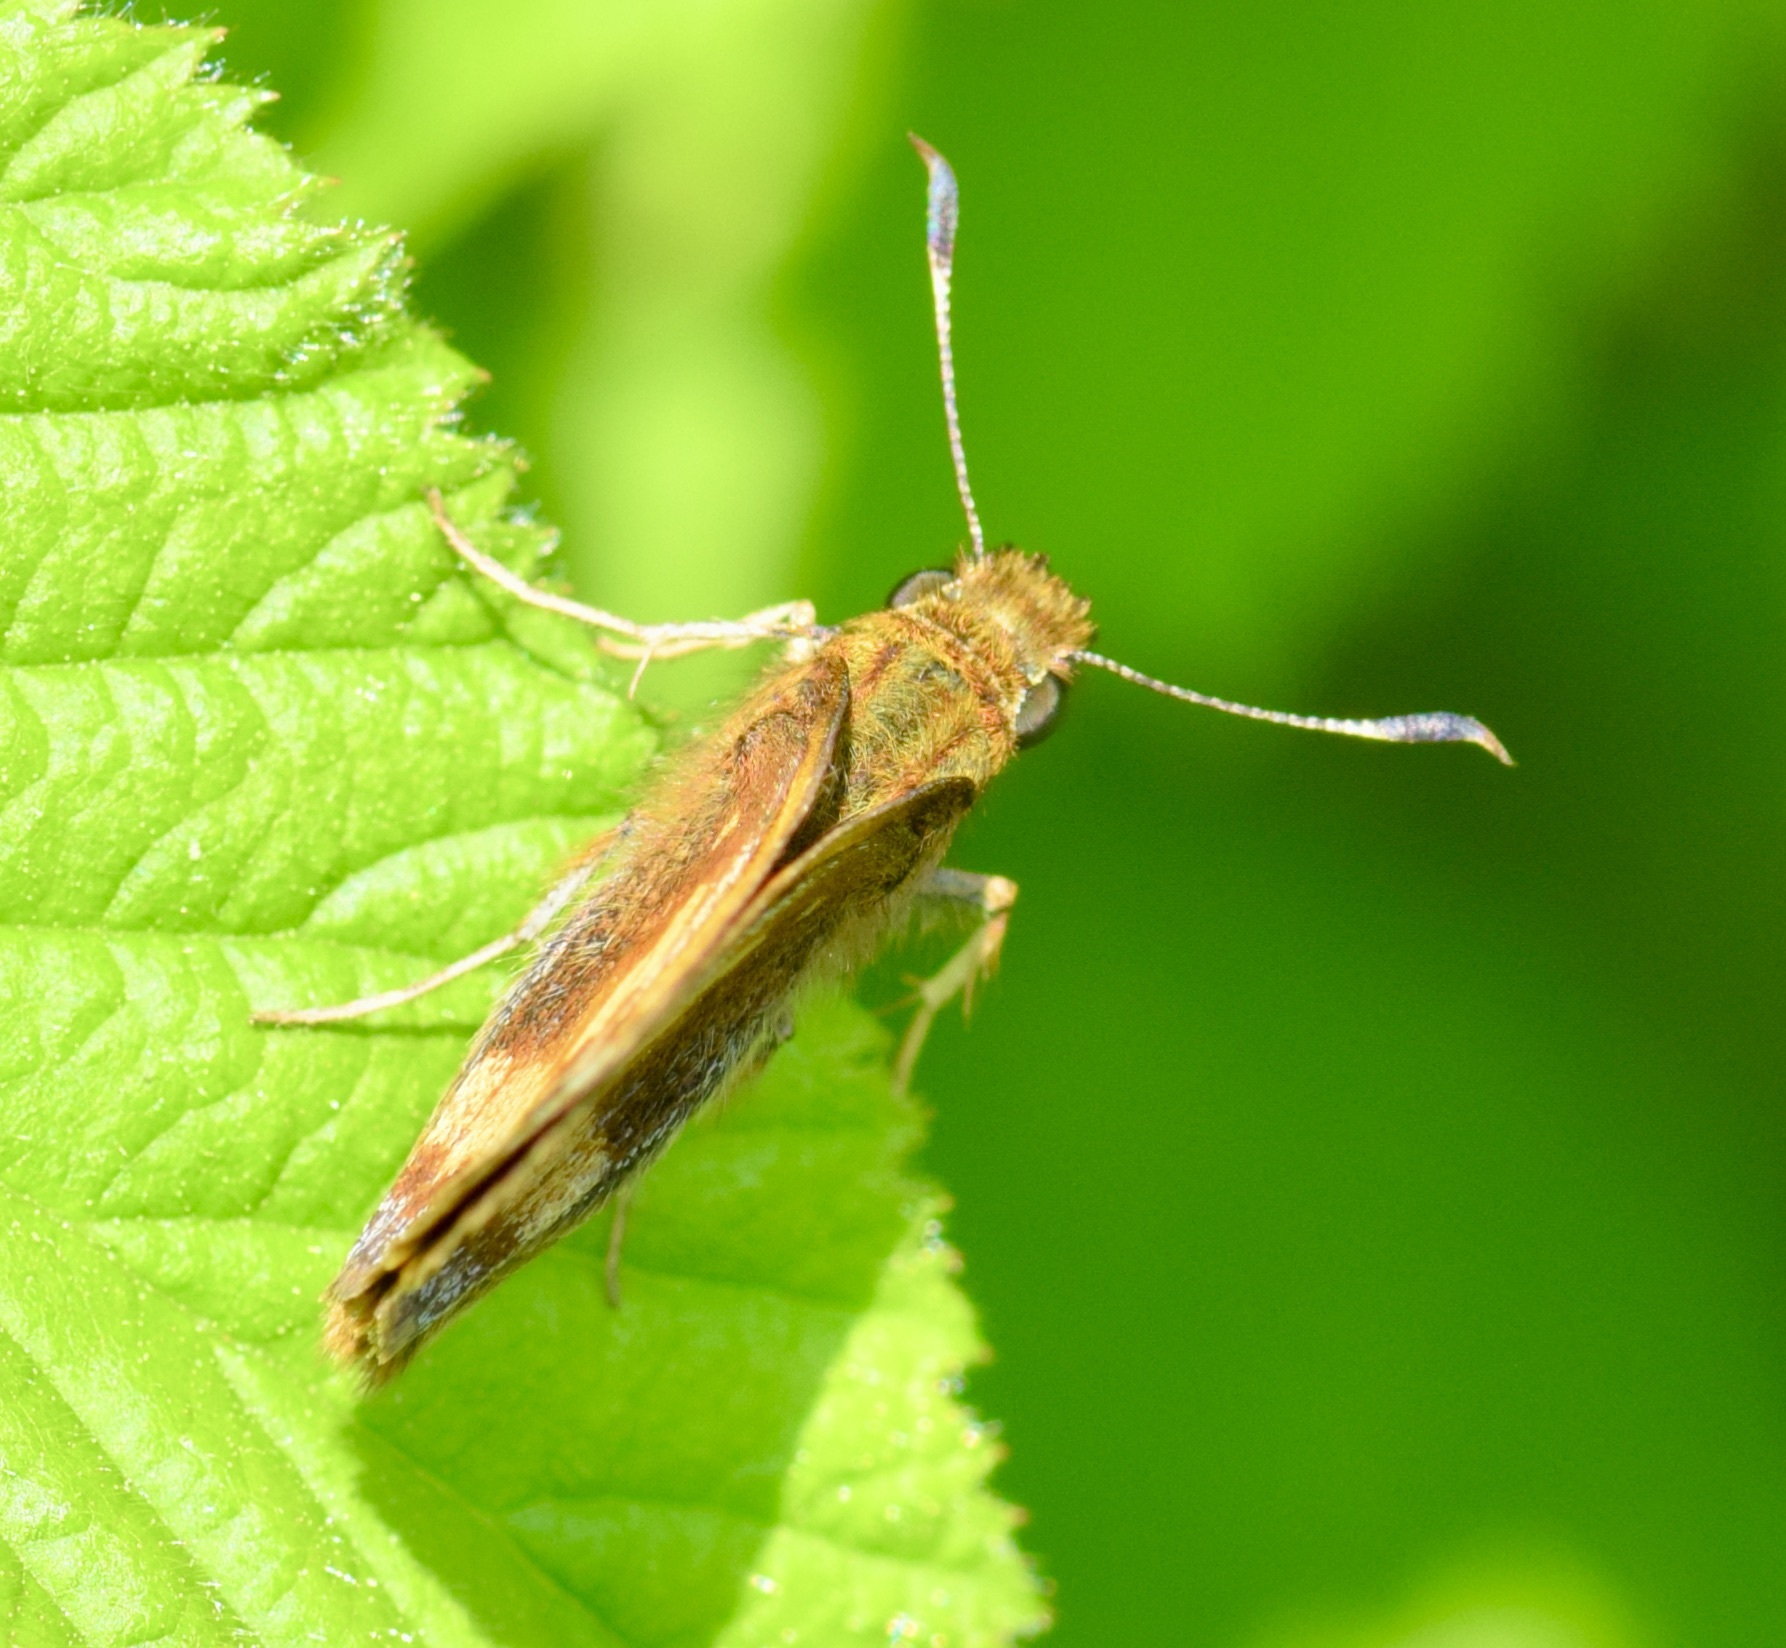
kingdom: Animalia
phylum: Arthropoda
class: Insecta
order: Lepidoptera
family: Hesperiidae
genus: Lon
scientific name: Lon hobomok
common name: Hobomok skipper
